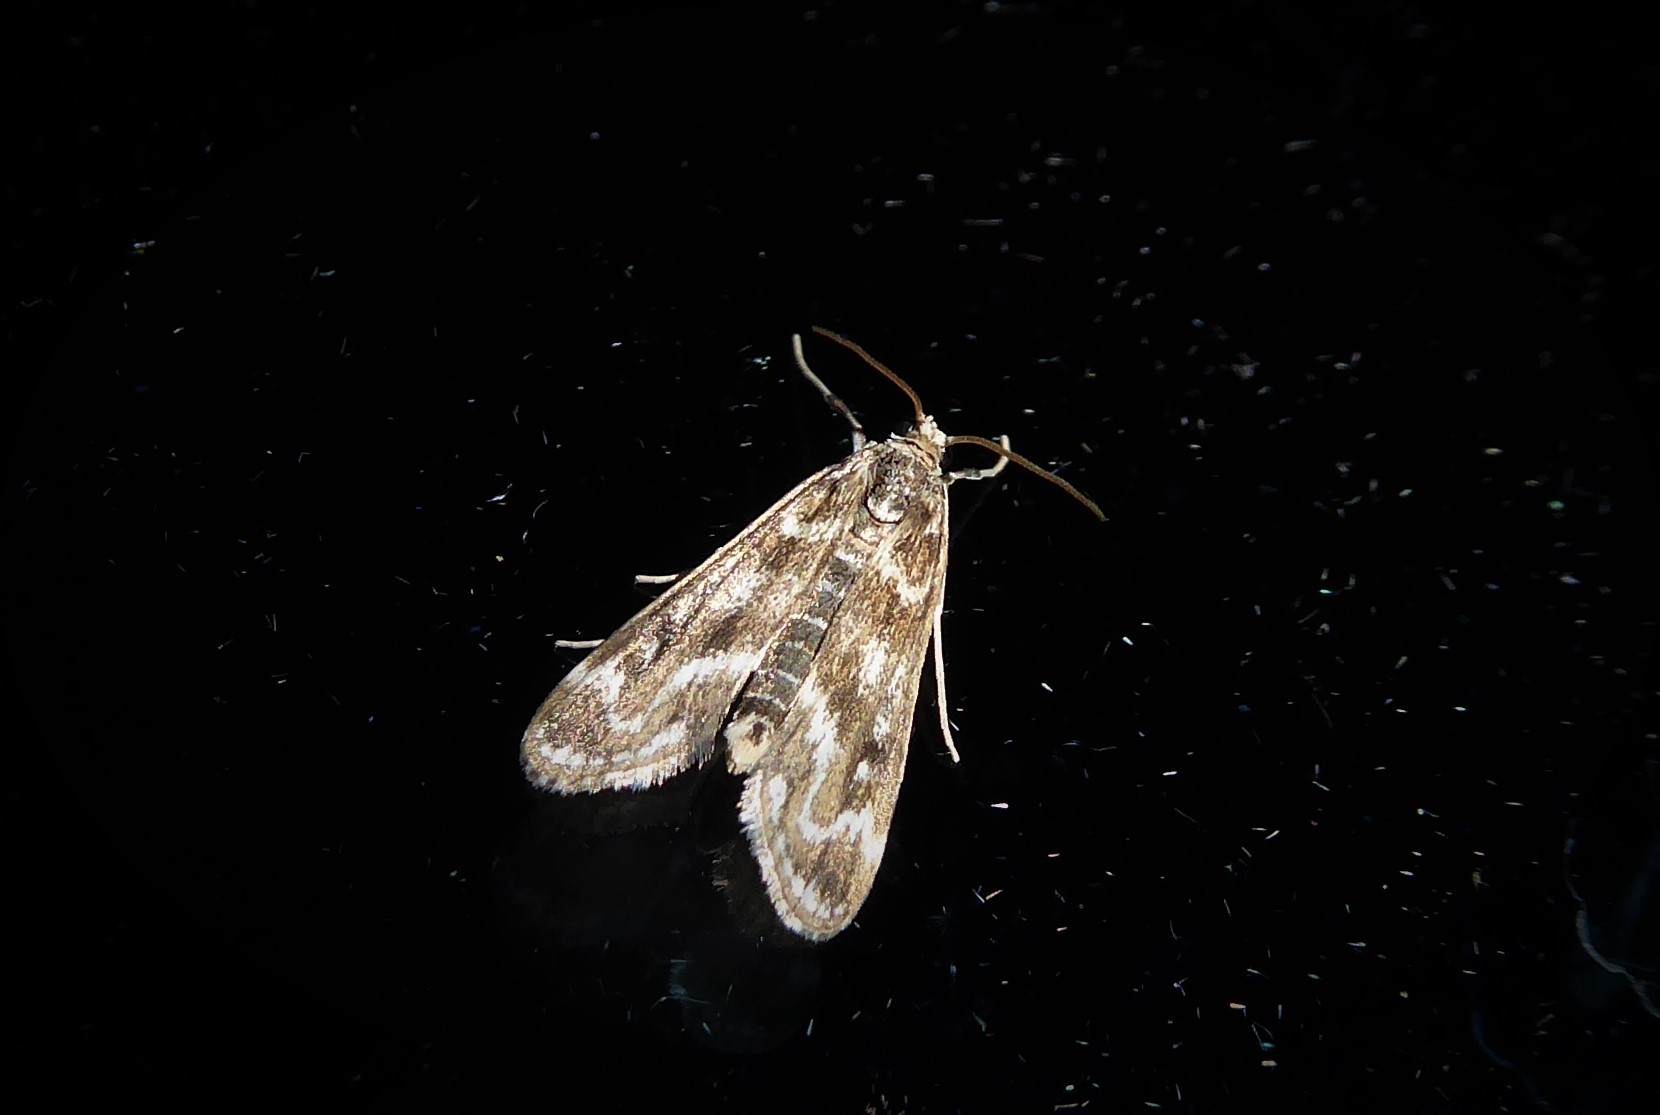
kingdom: Animalia
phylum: Arthropoda
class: Insecta
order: Lepidoptera
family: Crambidae
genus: Hygraula
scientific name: Hygraula nitens
